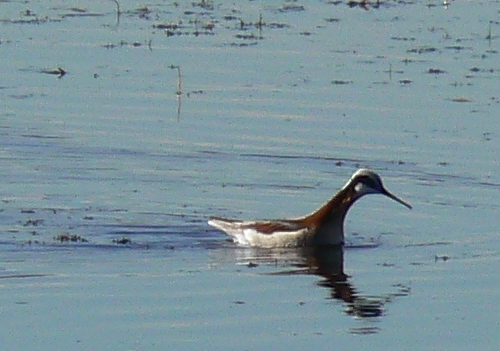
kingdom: Animalia
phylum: Chordata
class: Aves
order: Charadriiformes
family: Scolopacidae
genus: Phalaropus
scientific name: Phalaropus tricolor
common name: Wilson's phalarope
